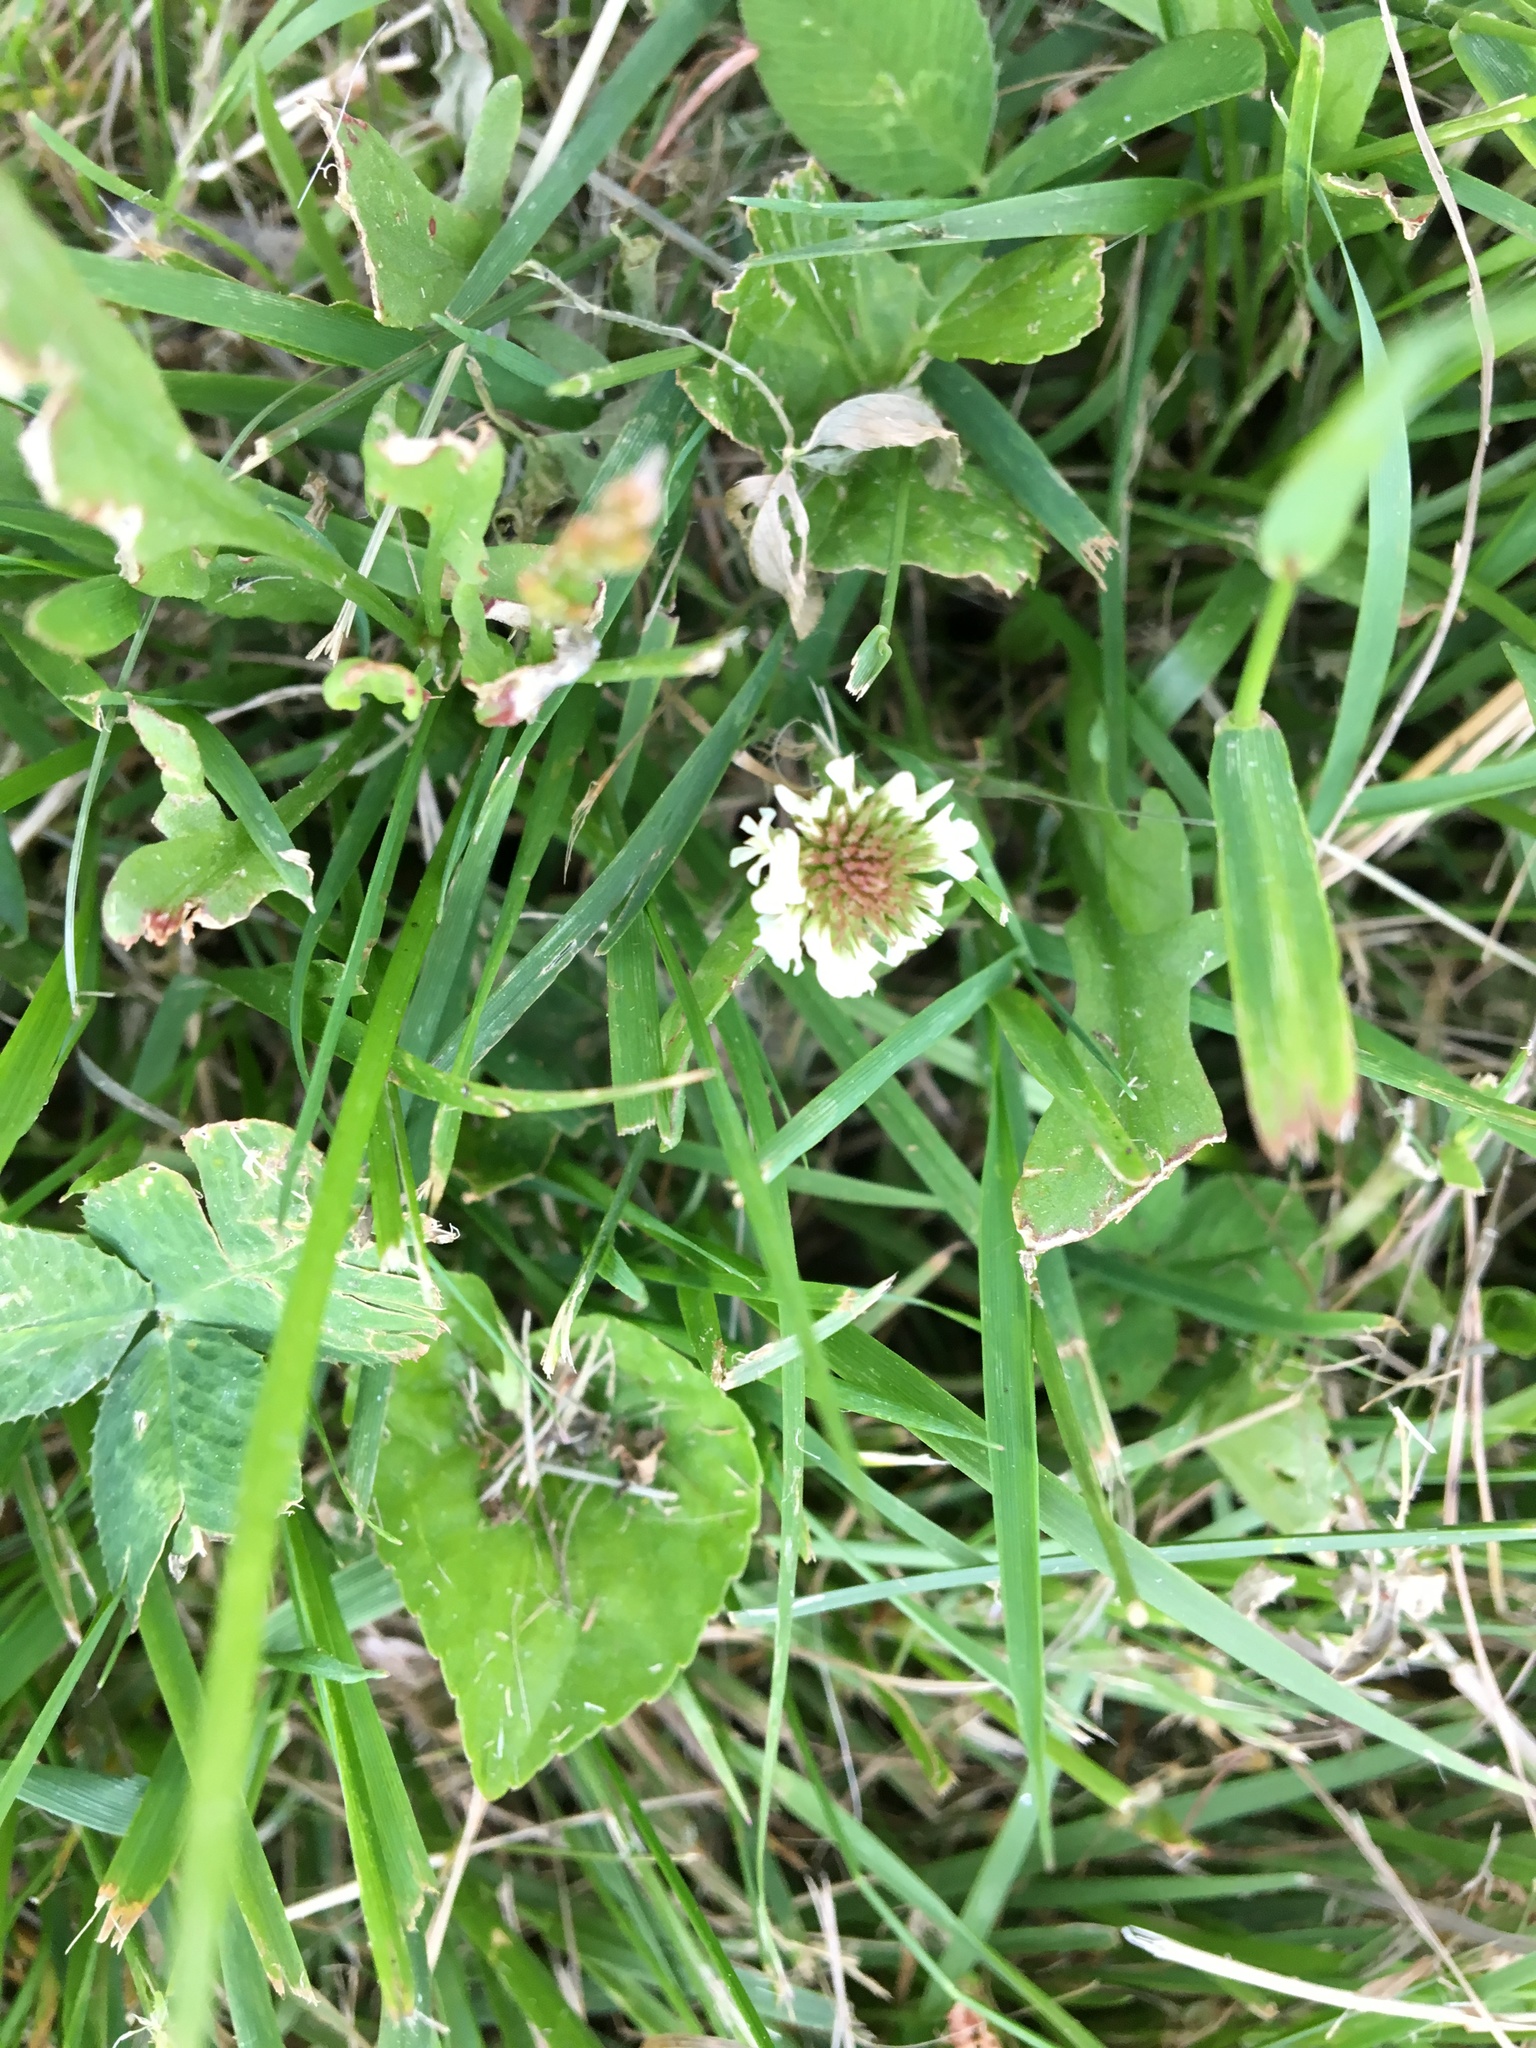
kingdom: Plantae
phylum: Tracheophyta
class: Magnoliopsida
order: Fabales
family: Fabaceae
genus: Trifolium
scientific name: Trifolium repens
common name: White clover
